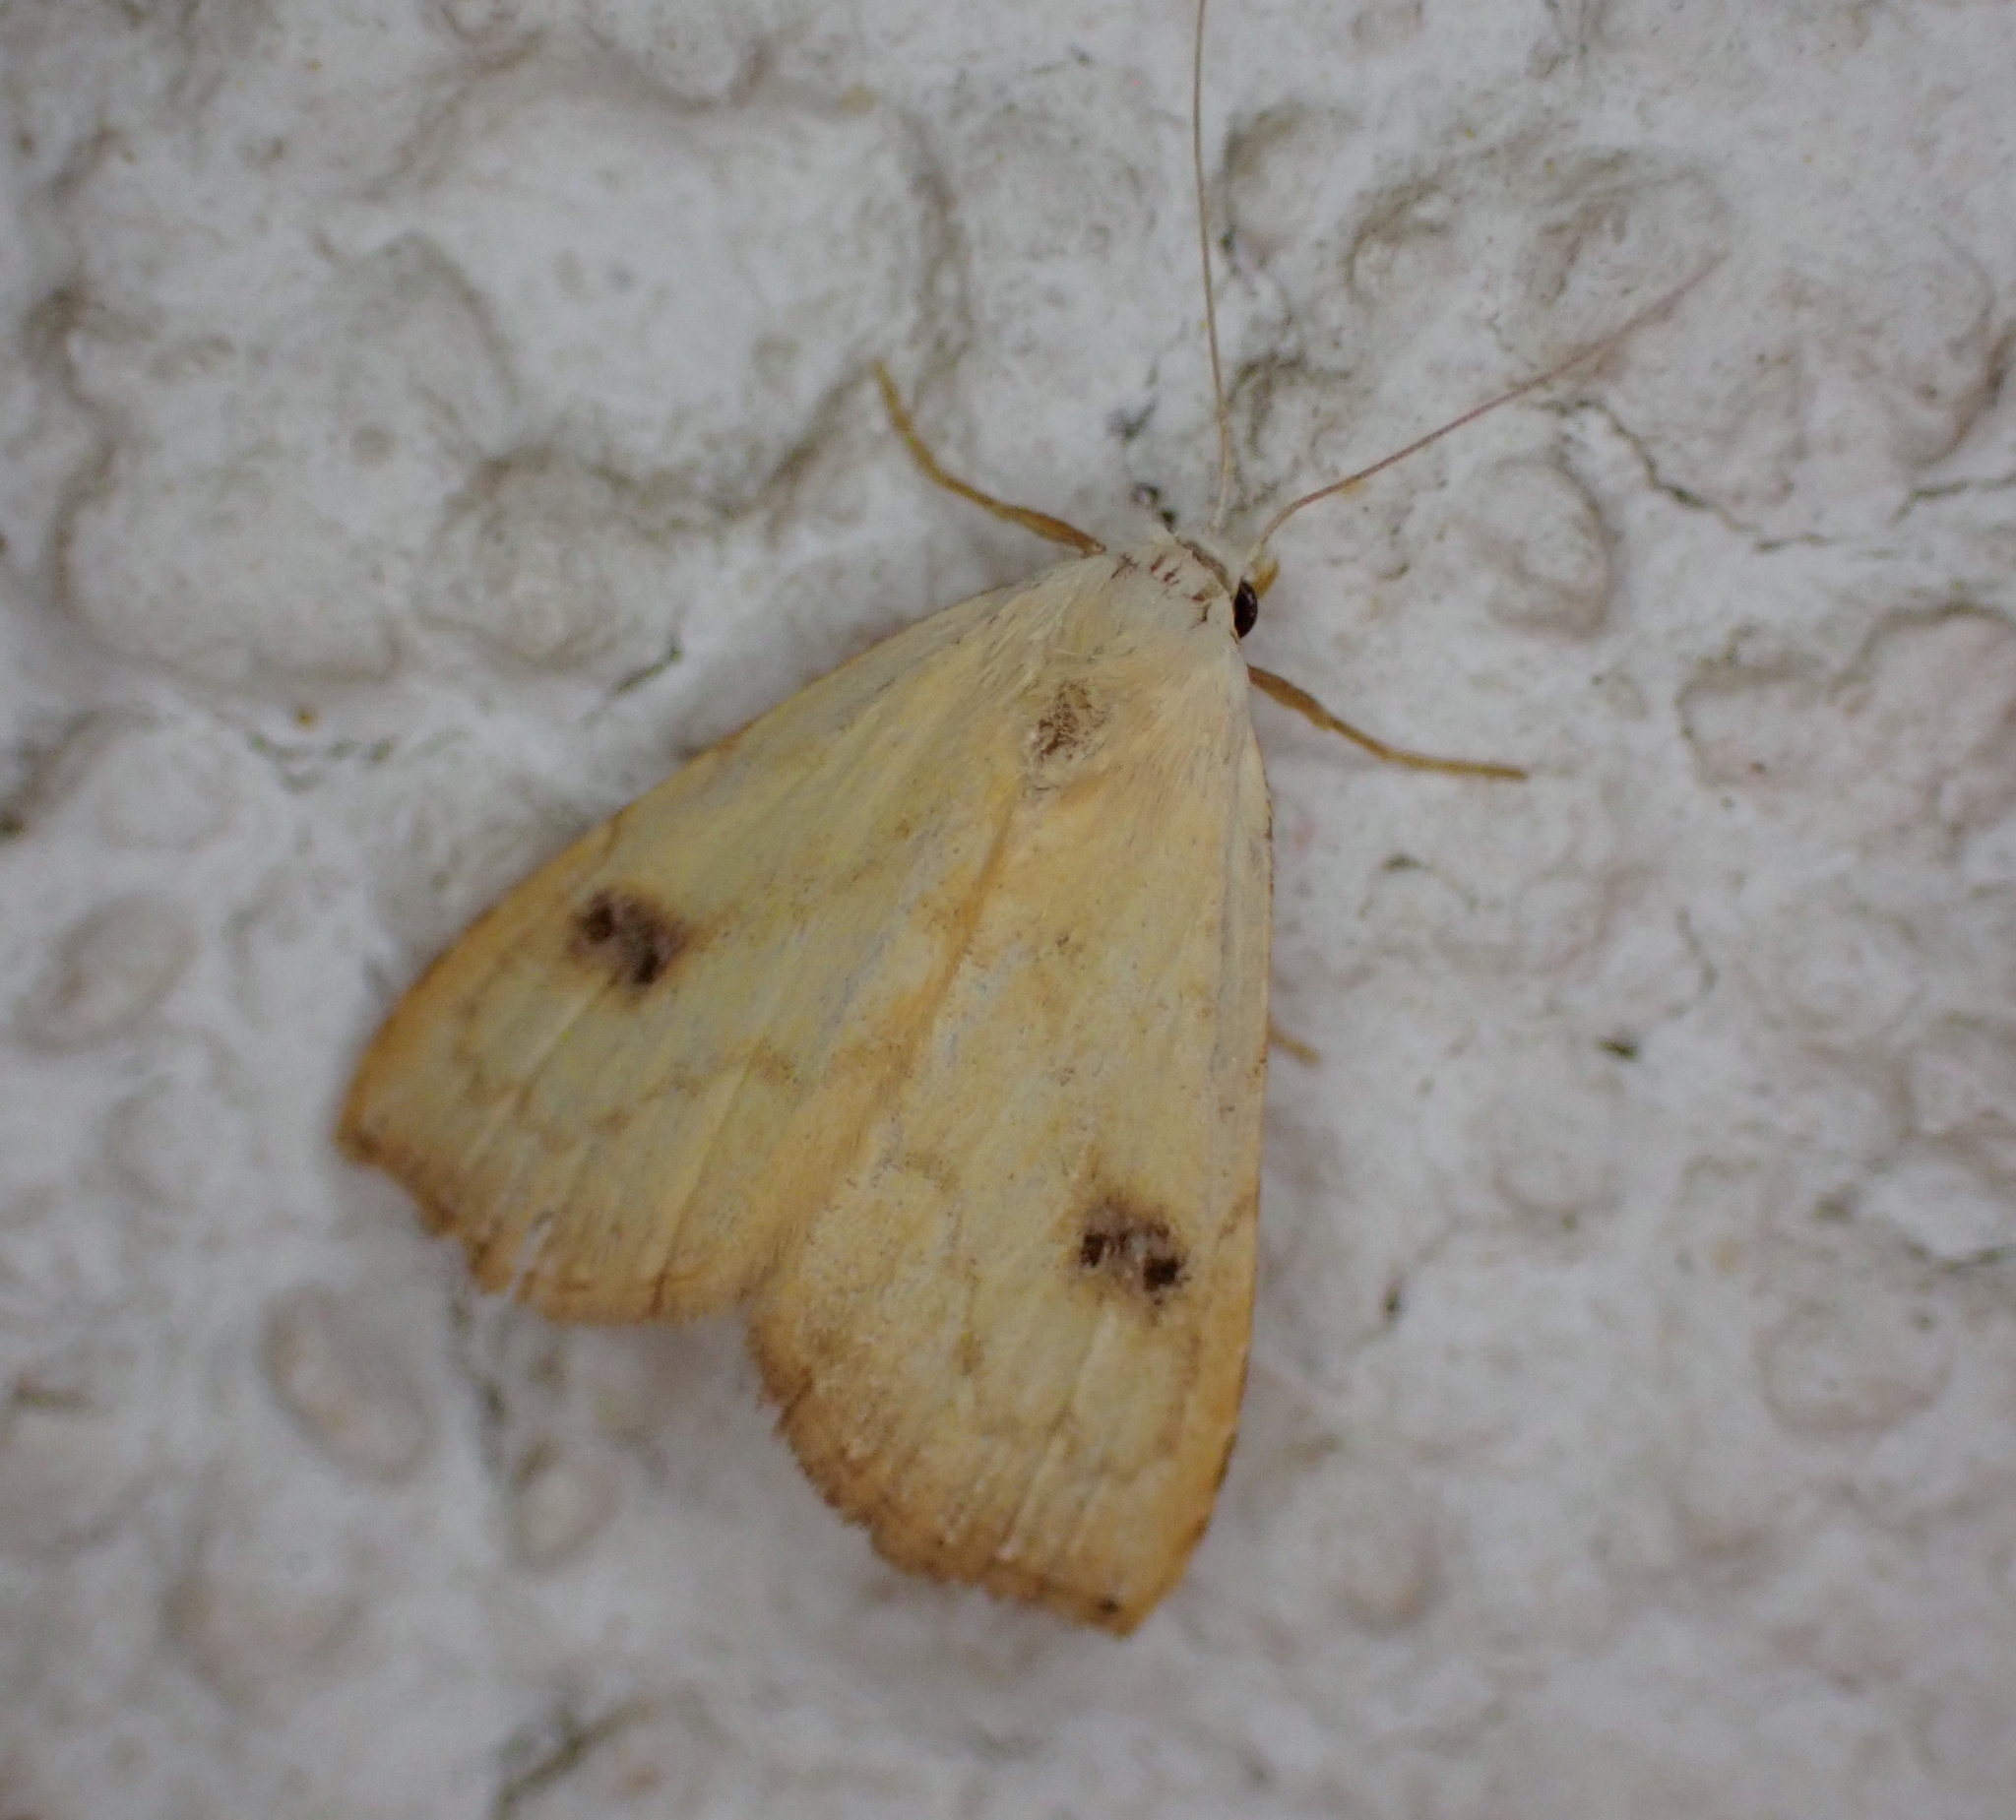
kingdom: Animalia
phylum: Arthropoda
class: Insecta
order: Lepidoptera
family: Erebidae
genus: Rivula
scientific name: Rivula sericealis
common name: Straw dot
